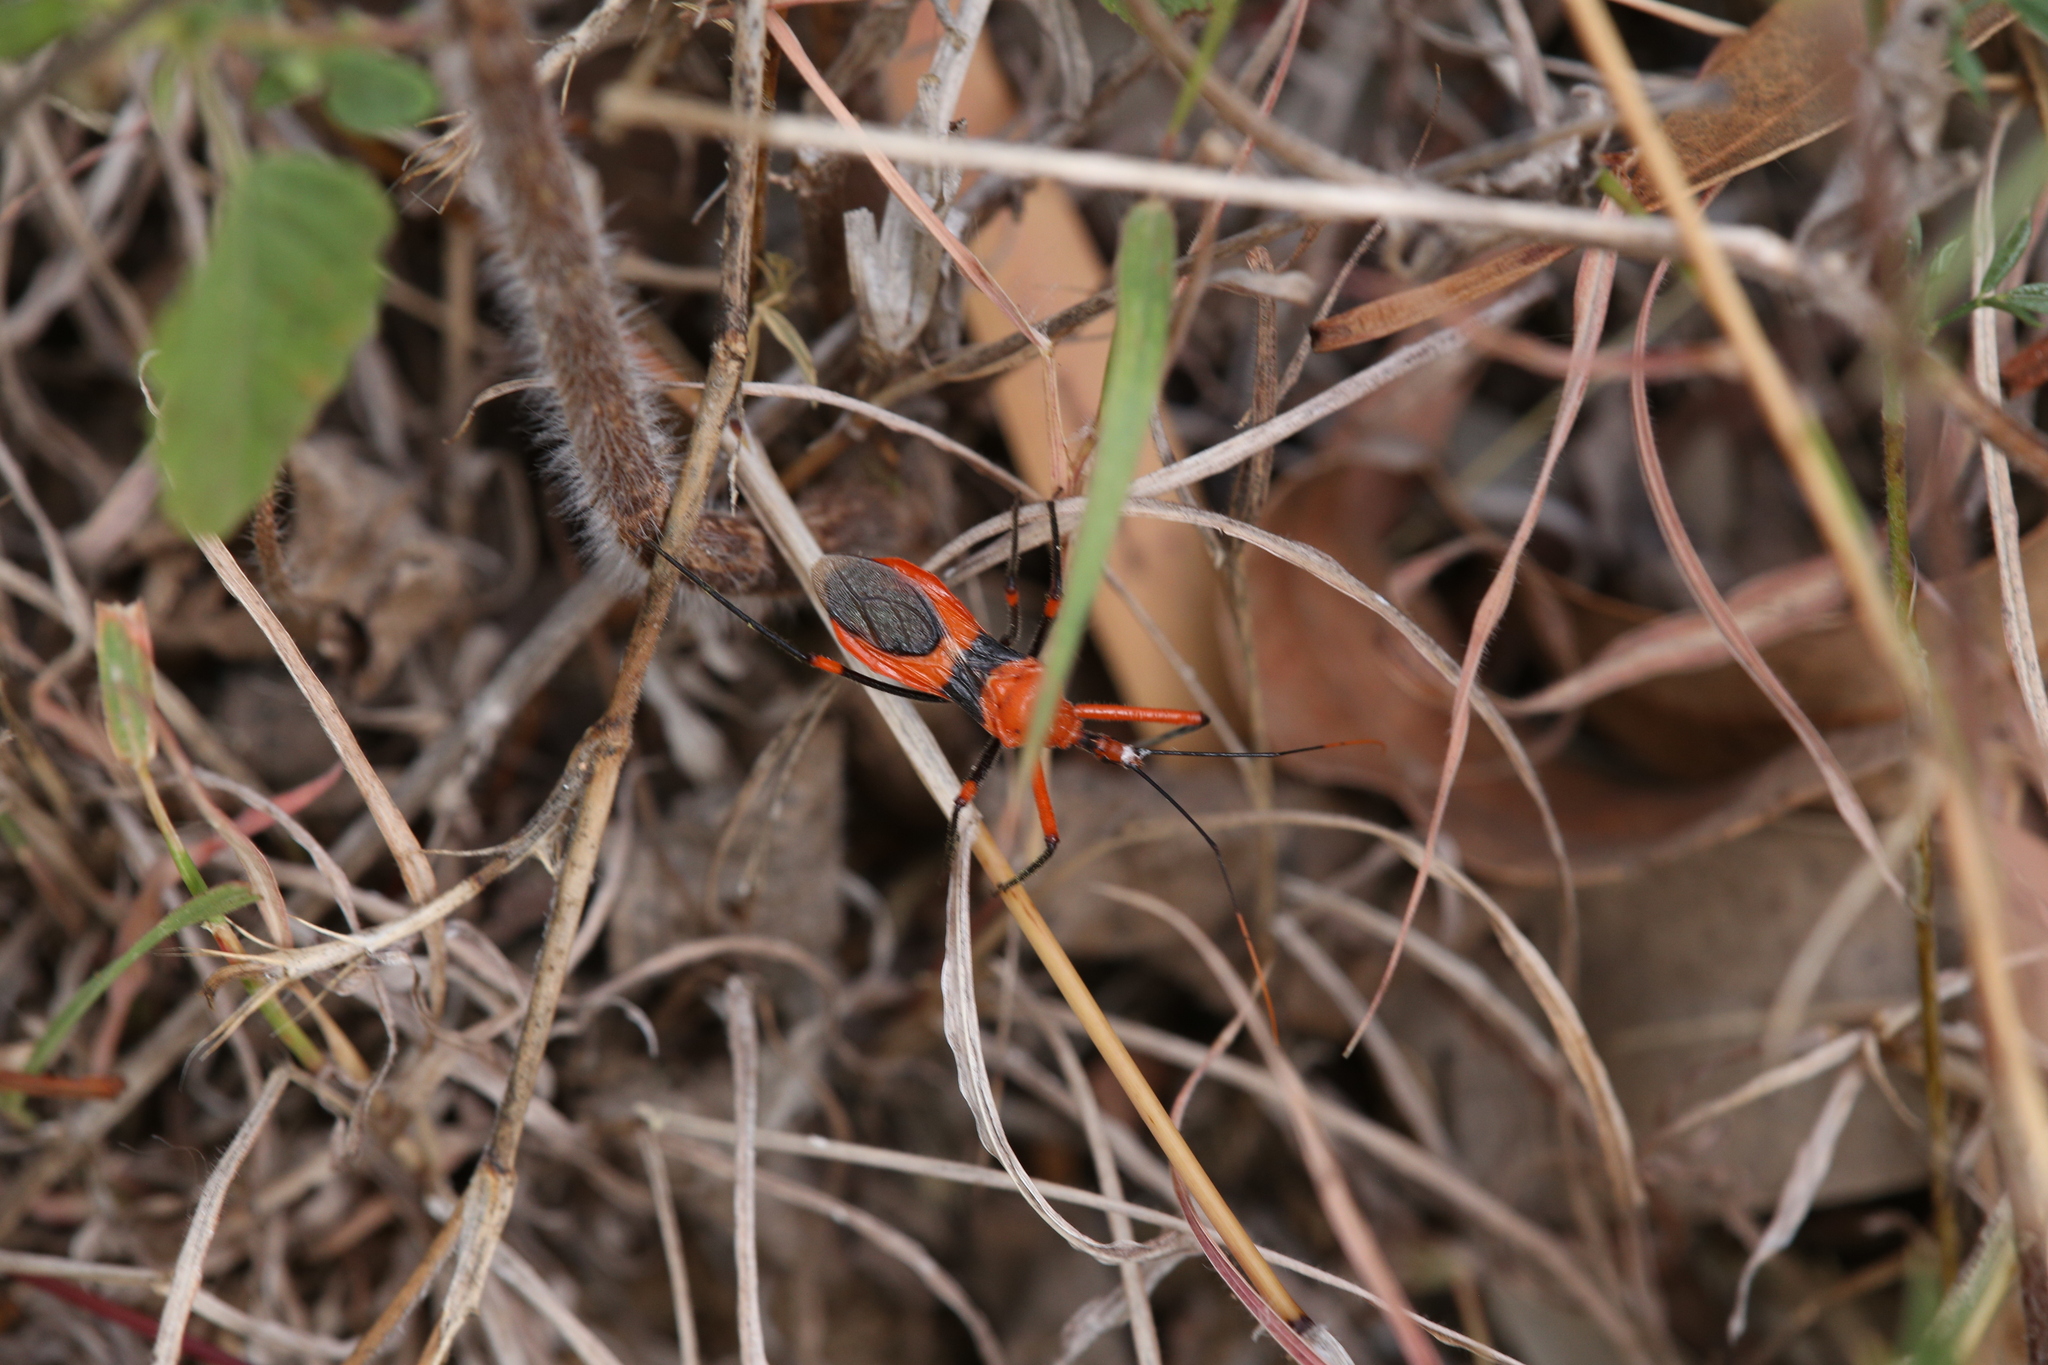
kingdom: Animalia
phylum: Arthropoda
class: Insecta
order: Hemiptera
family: Reduviidae
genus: Poecilobdallus
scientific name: Poecilobdallus formosus
